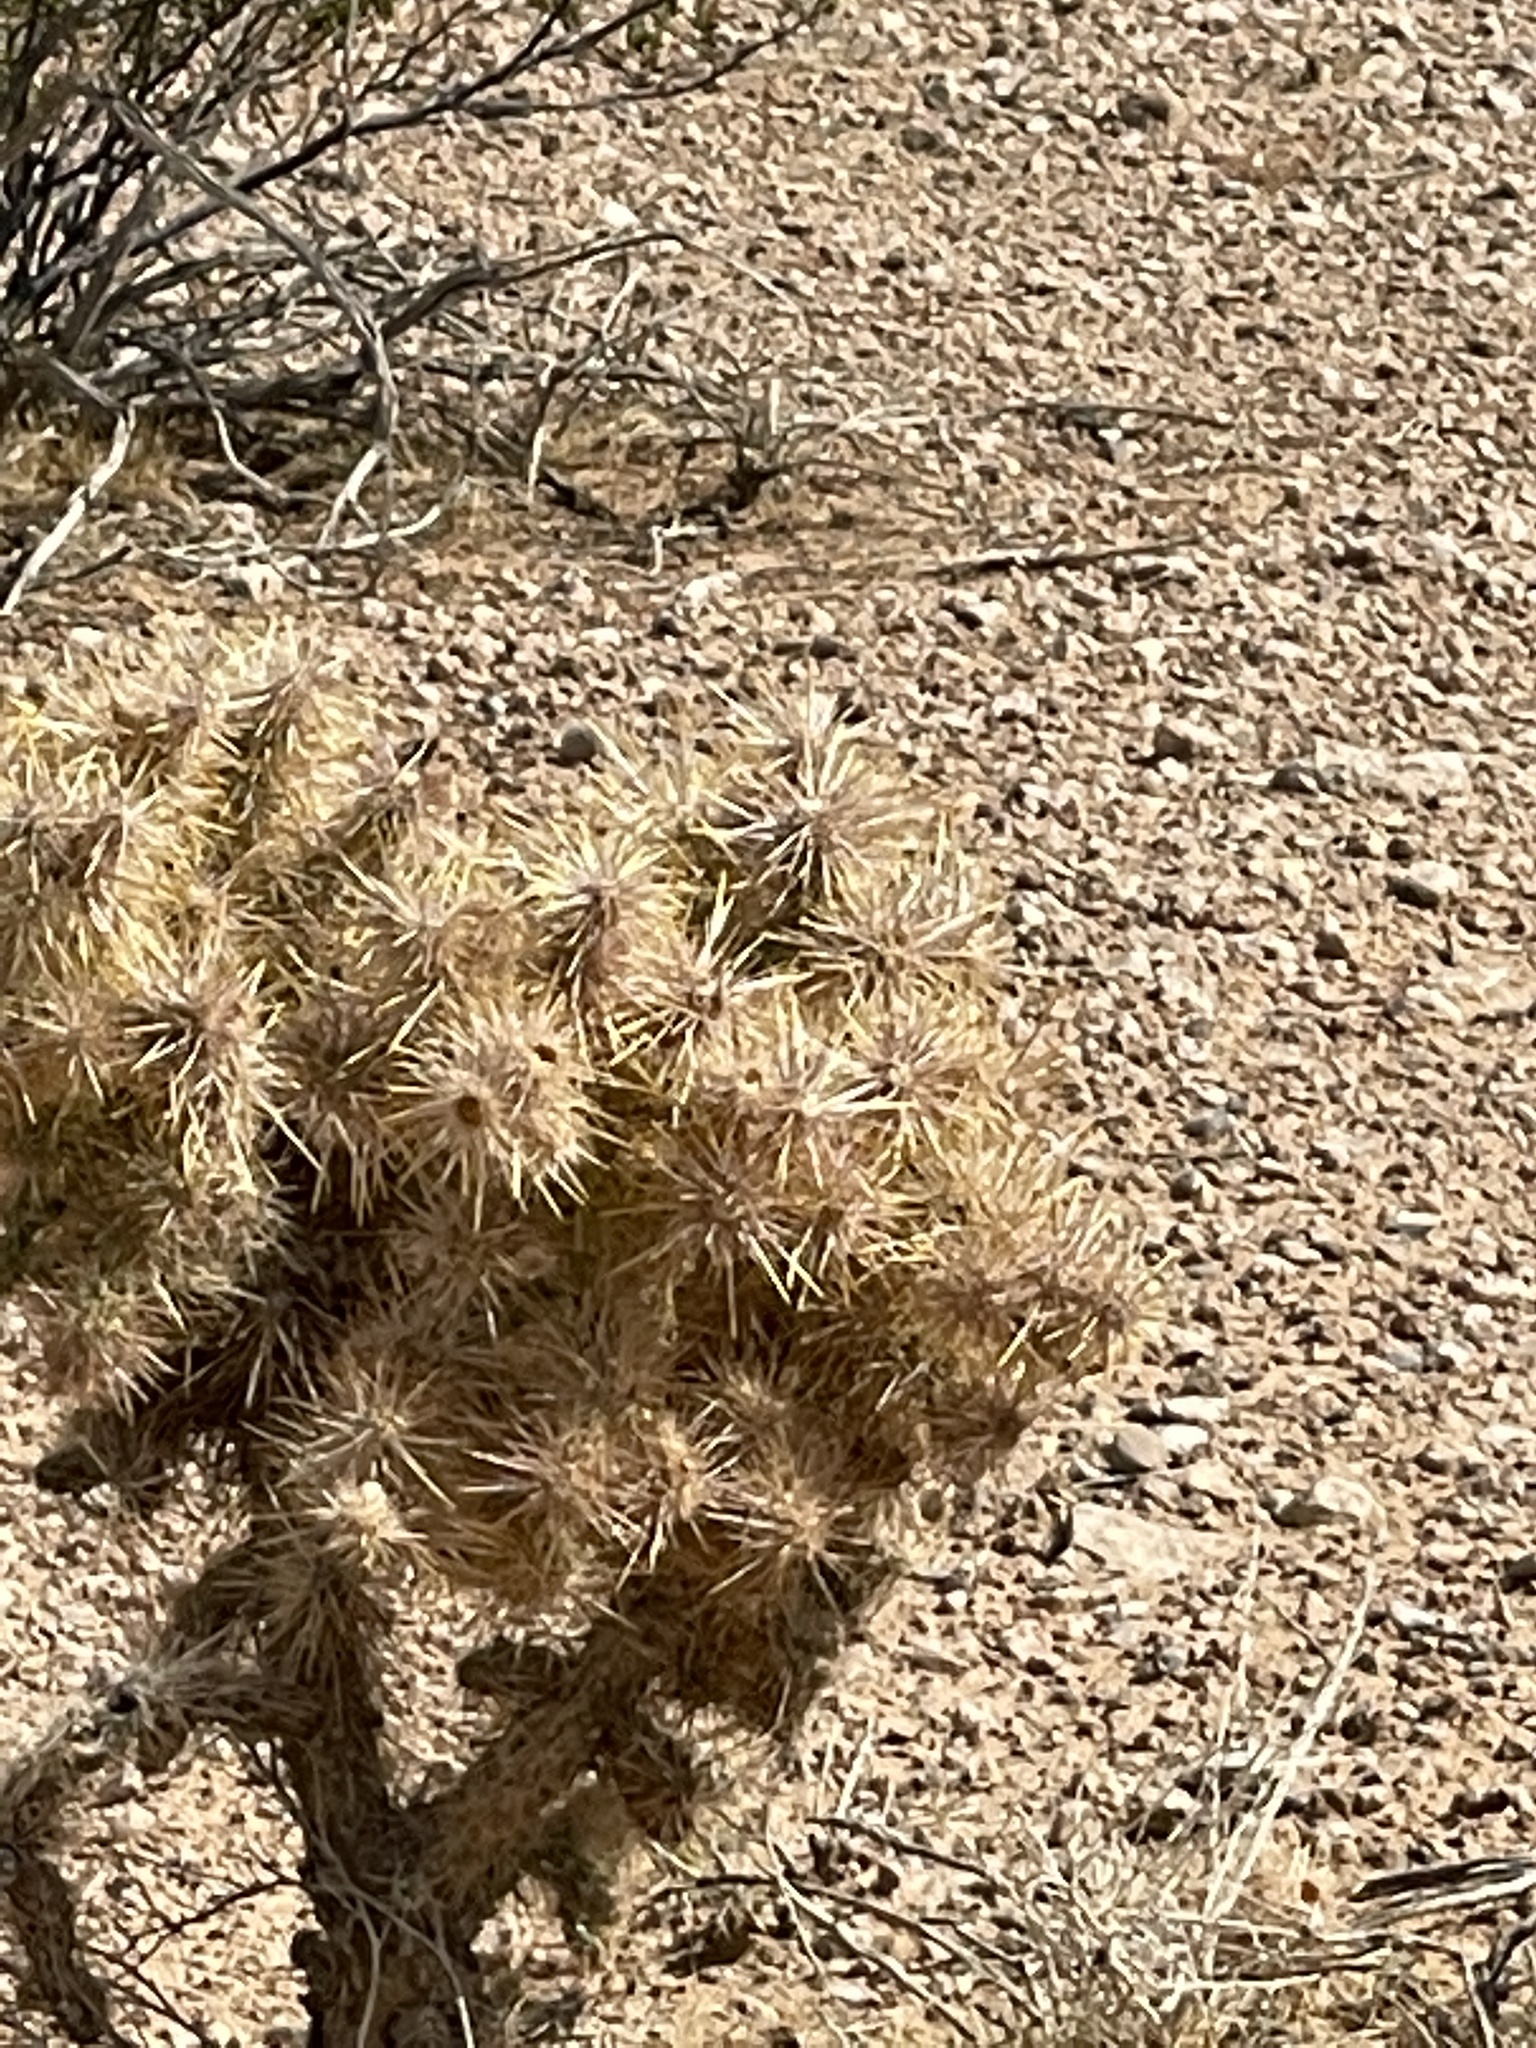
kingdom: Plantae
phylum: Tracheophyta
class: Magnoliopsida
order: Caryophyllales
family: Cactaceae
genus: Cylindropuntia
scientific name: Cylindropuntia echinocarpa
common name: Ground cholla
